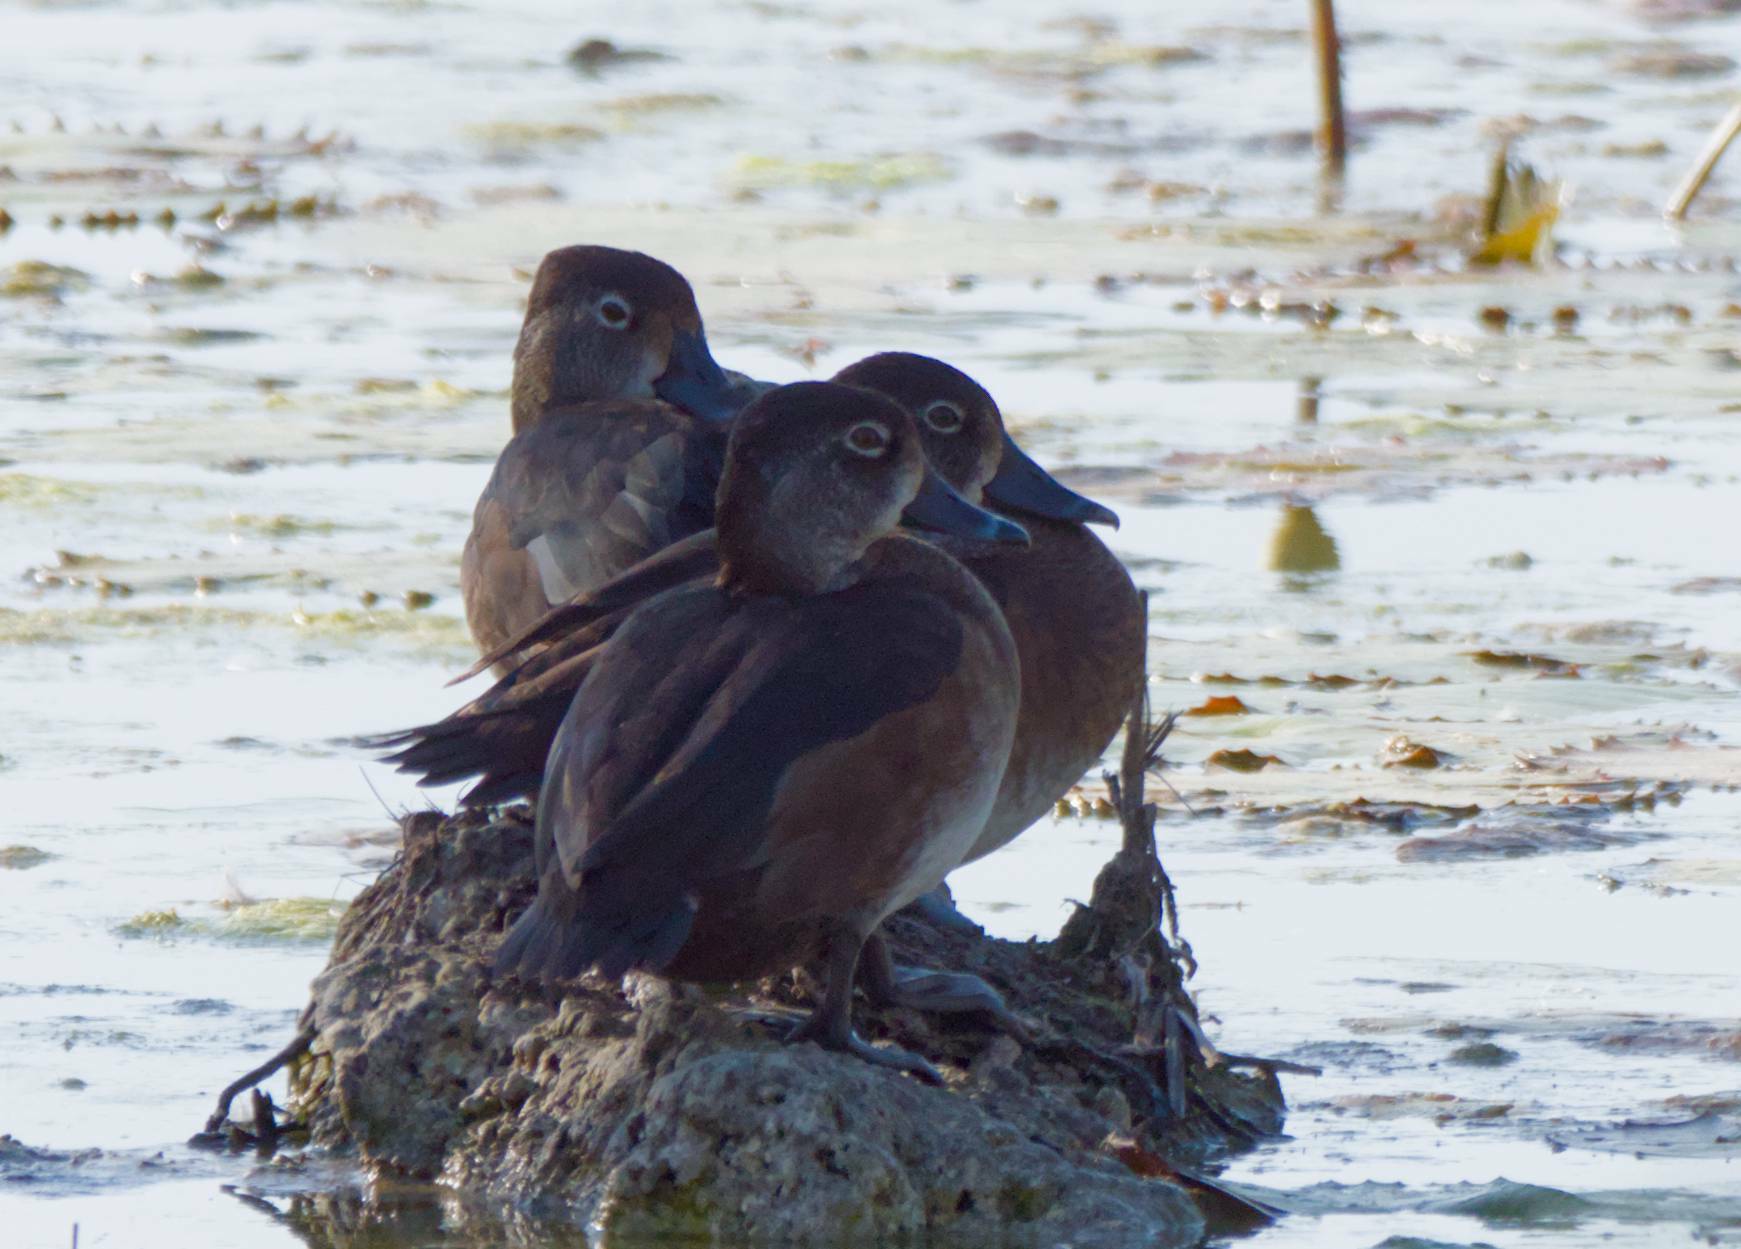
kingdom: Animalia
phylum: Chordata
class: Aves
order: Anseriformes
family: Anatidae
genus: Aythya
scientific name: Aythya collaris
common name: Ring-necked duck
